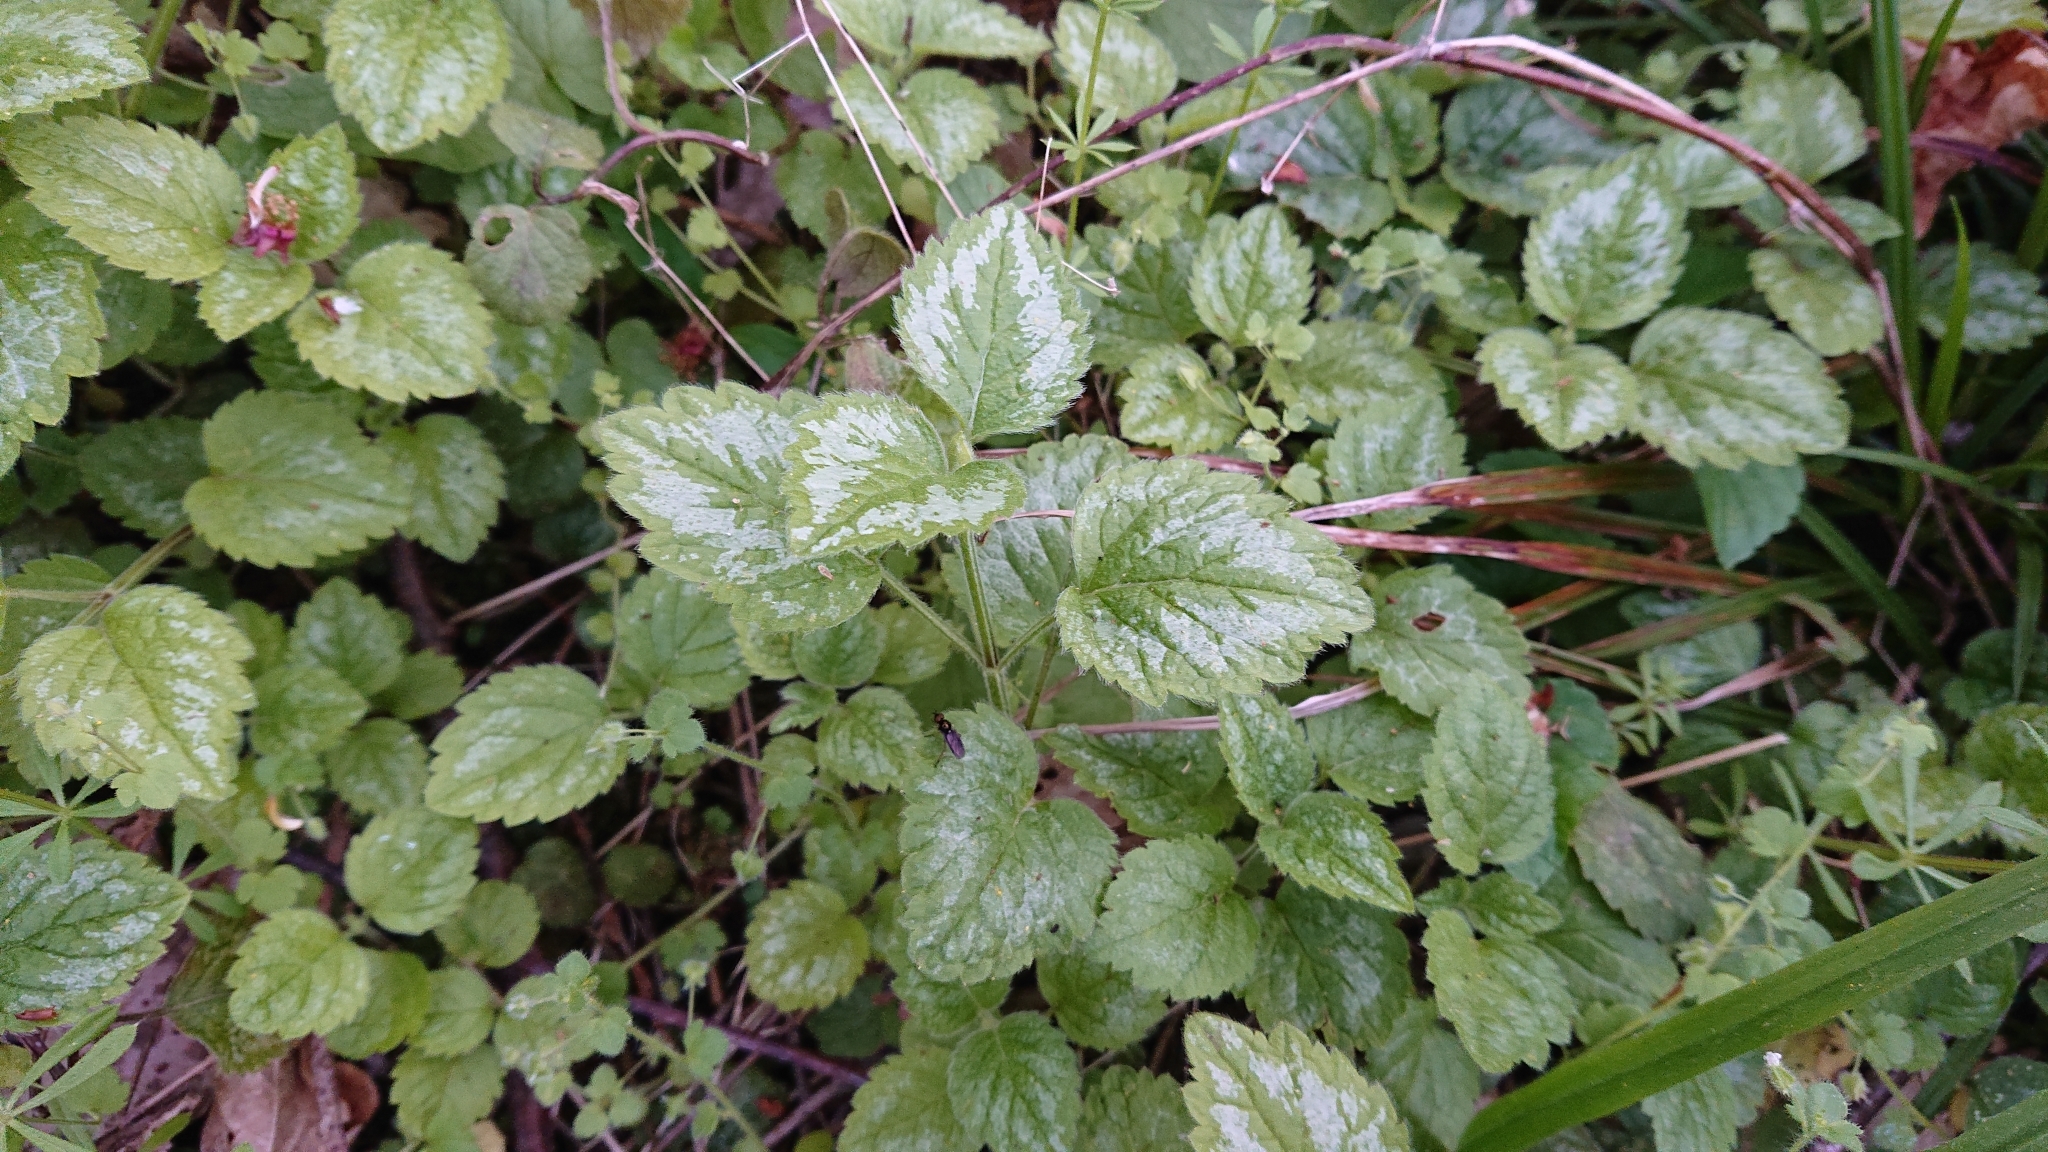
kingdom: Plantae
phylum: Tracheophyta
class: Magnoliopsida
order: Lamiales
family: Lamiaceae
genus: Lamium
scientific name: Lamium galeobdolon
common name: Yellow archangel
